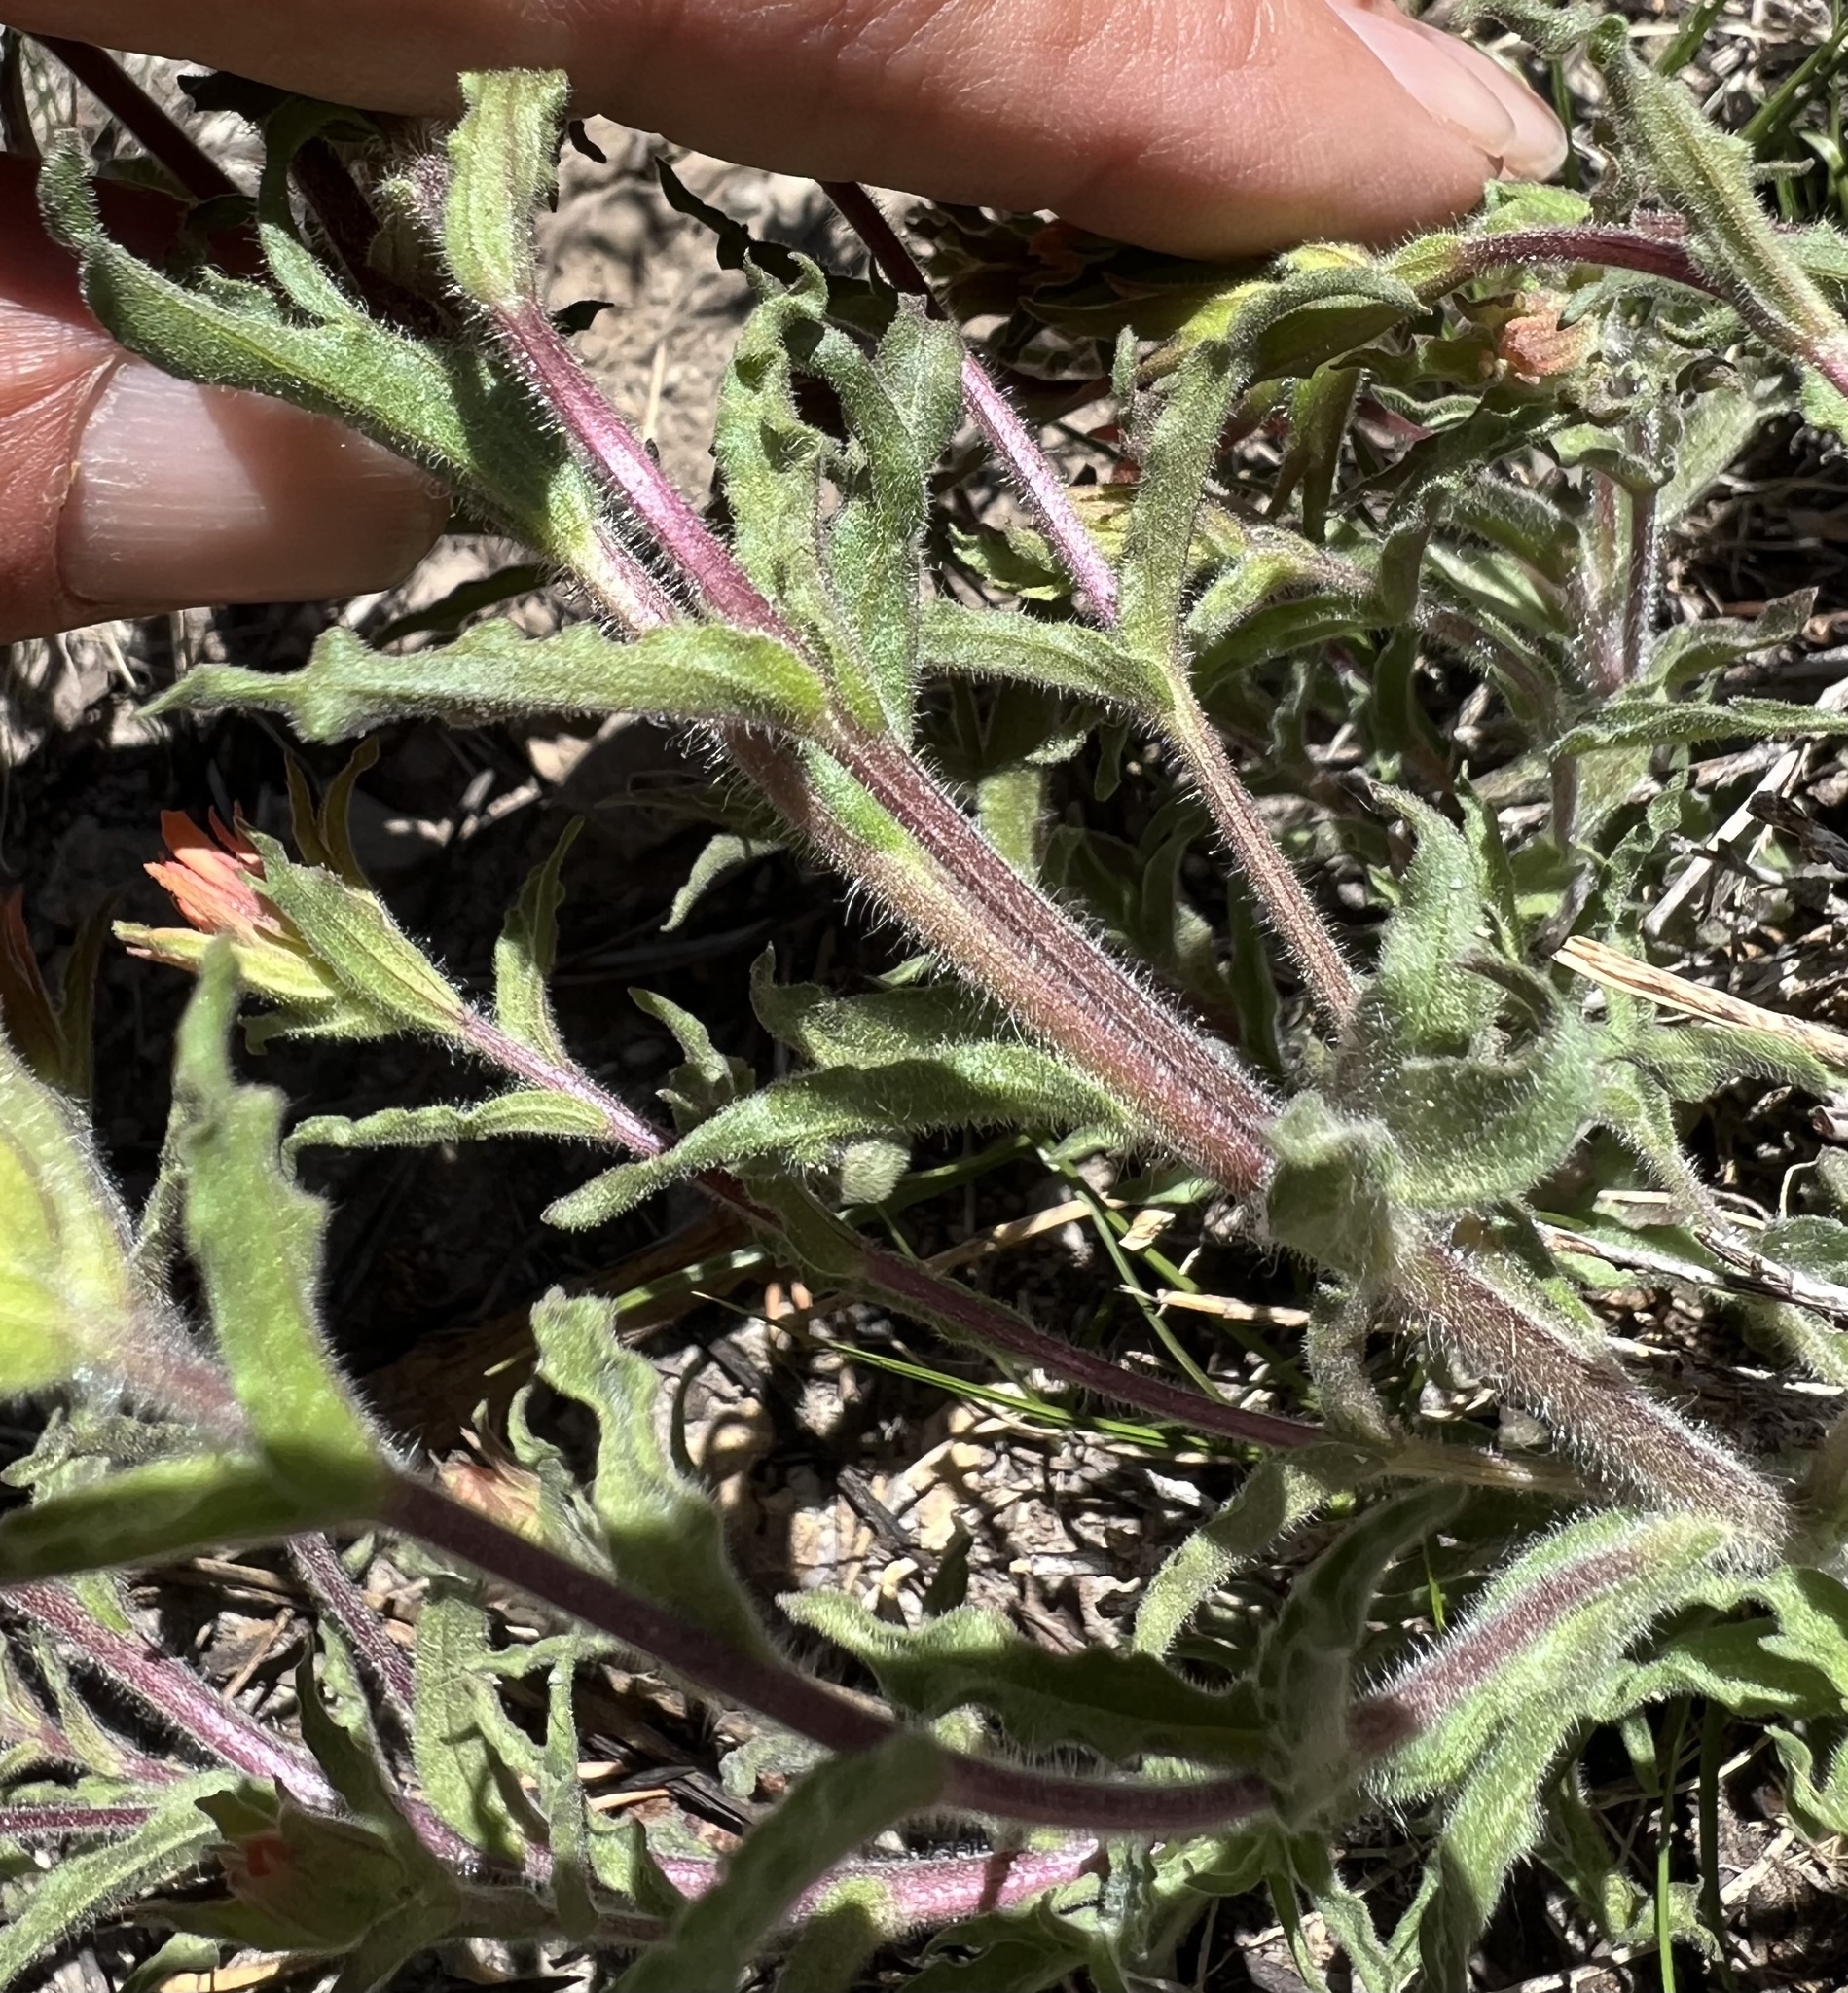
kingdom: Plantae
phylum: Tracheophyta
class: Magnoliopsida
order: Lamiales
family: Orobanchaceae
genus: Castilleja
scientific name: Castilleja applegatei
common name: Wavy-leaf paintbrush
